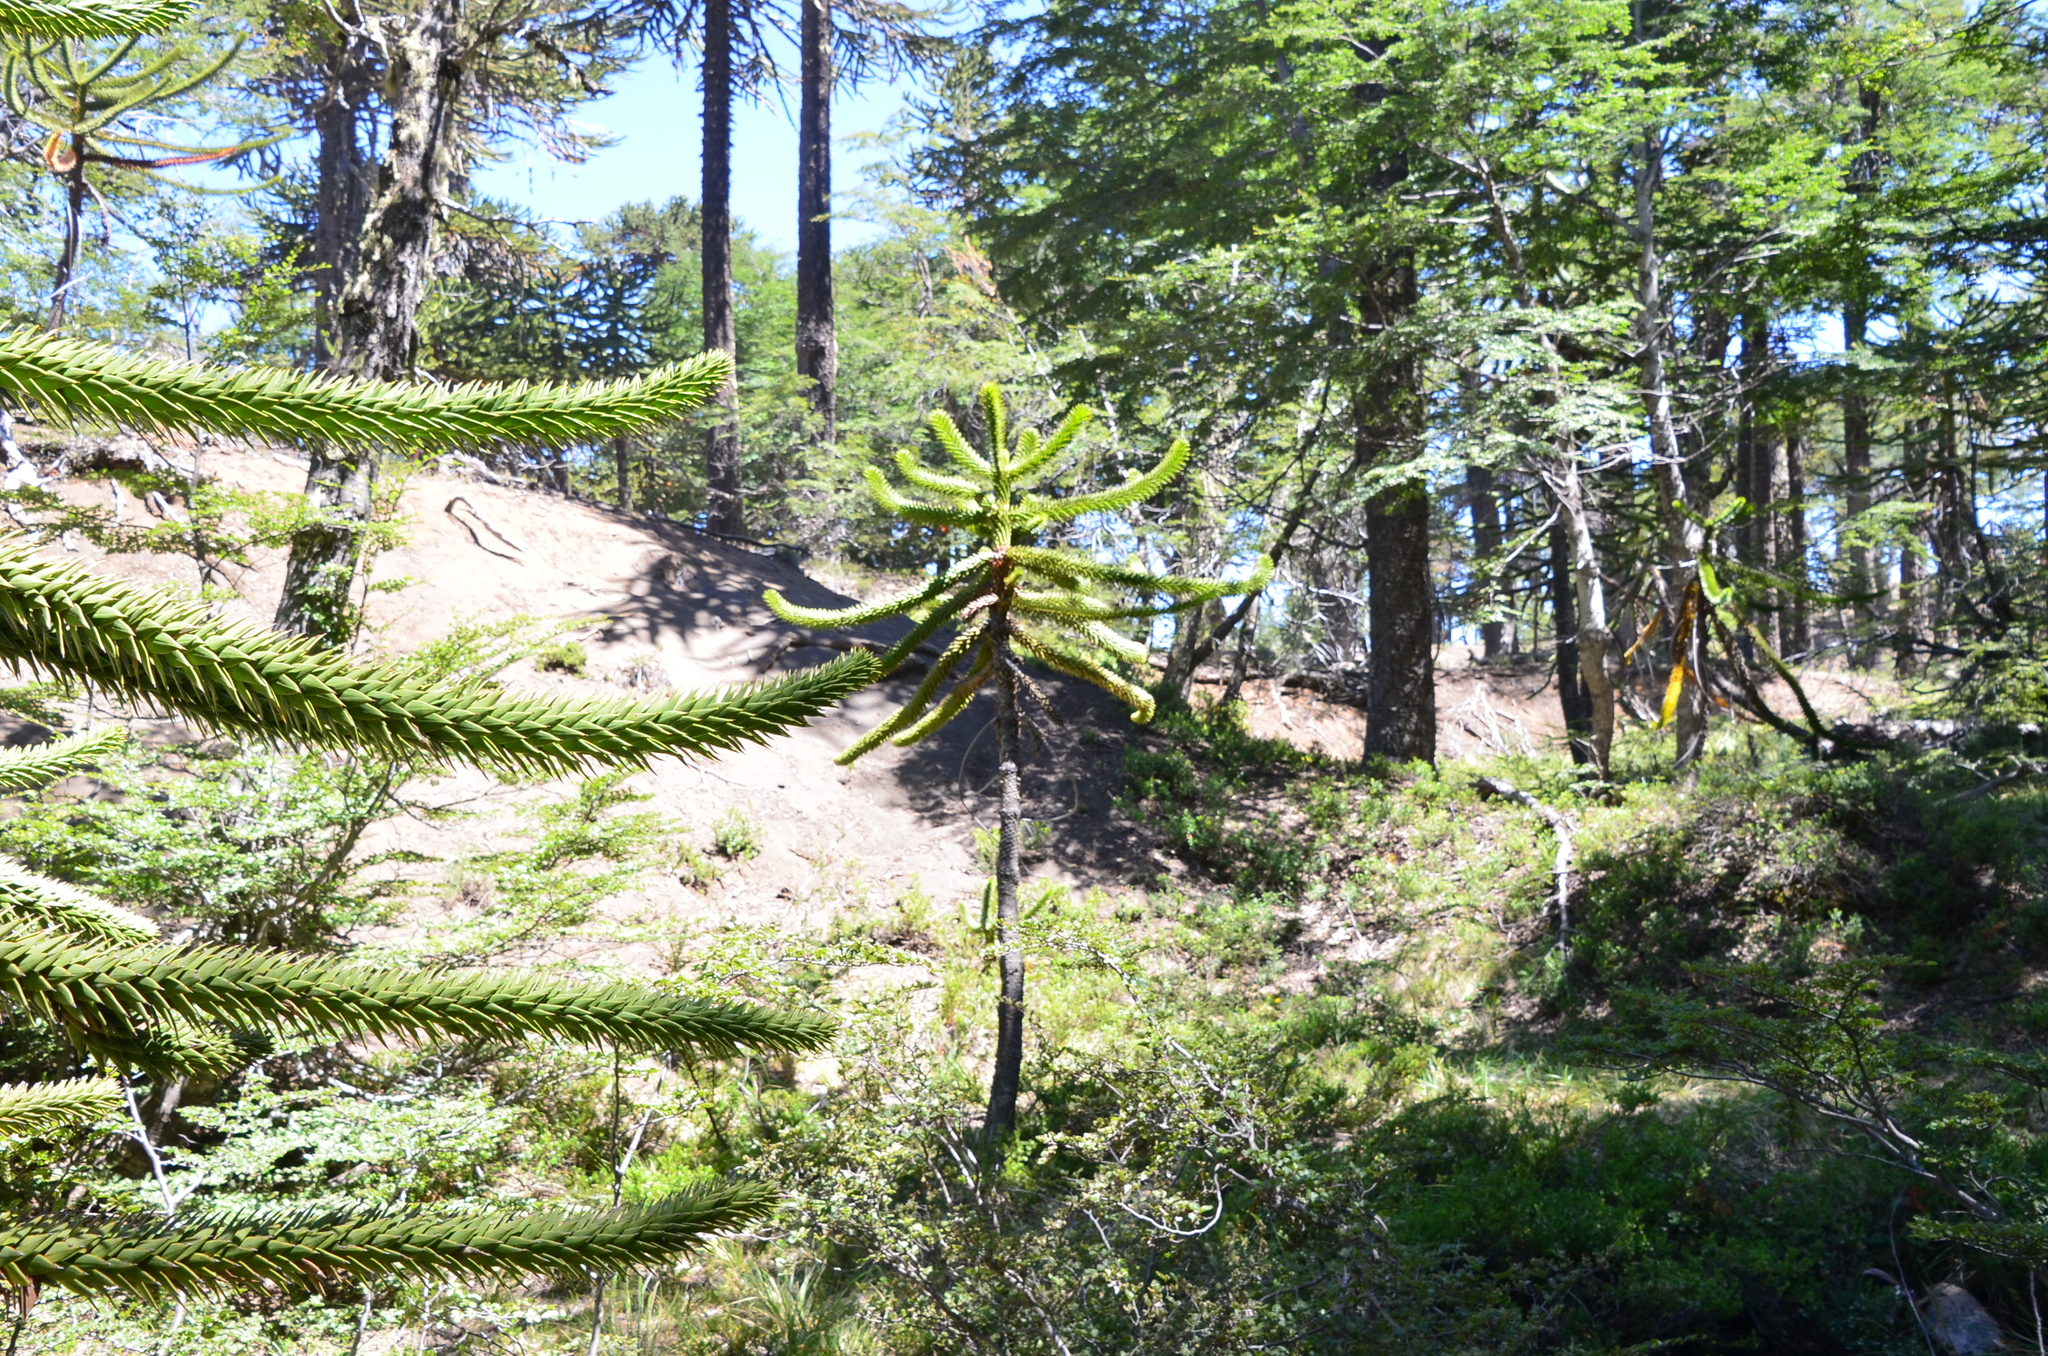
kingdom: Plantae
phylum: Tracheophyta
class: Pinopsida
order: Pinales
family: Araucariaceae
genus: Araucaria
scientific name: Araucaria araucana
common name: Monkey-puzzle
